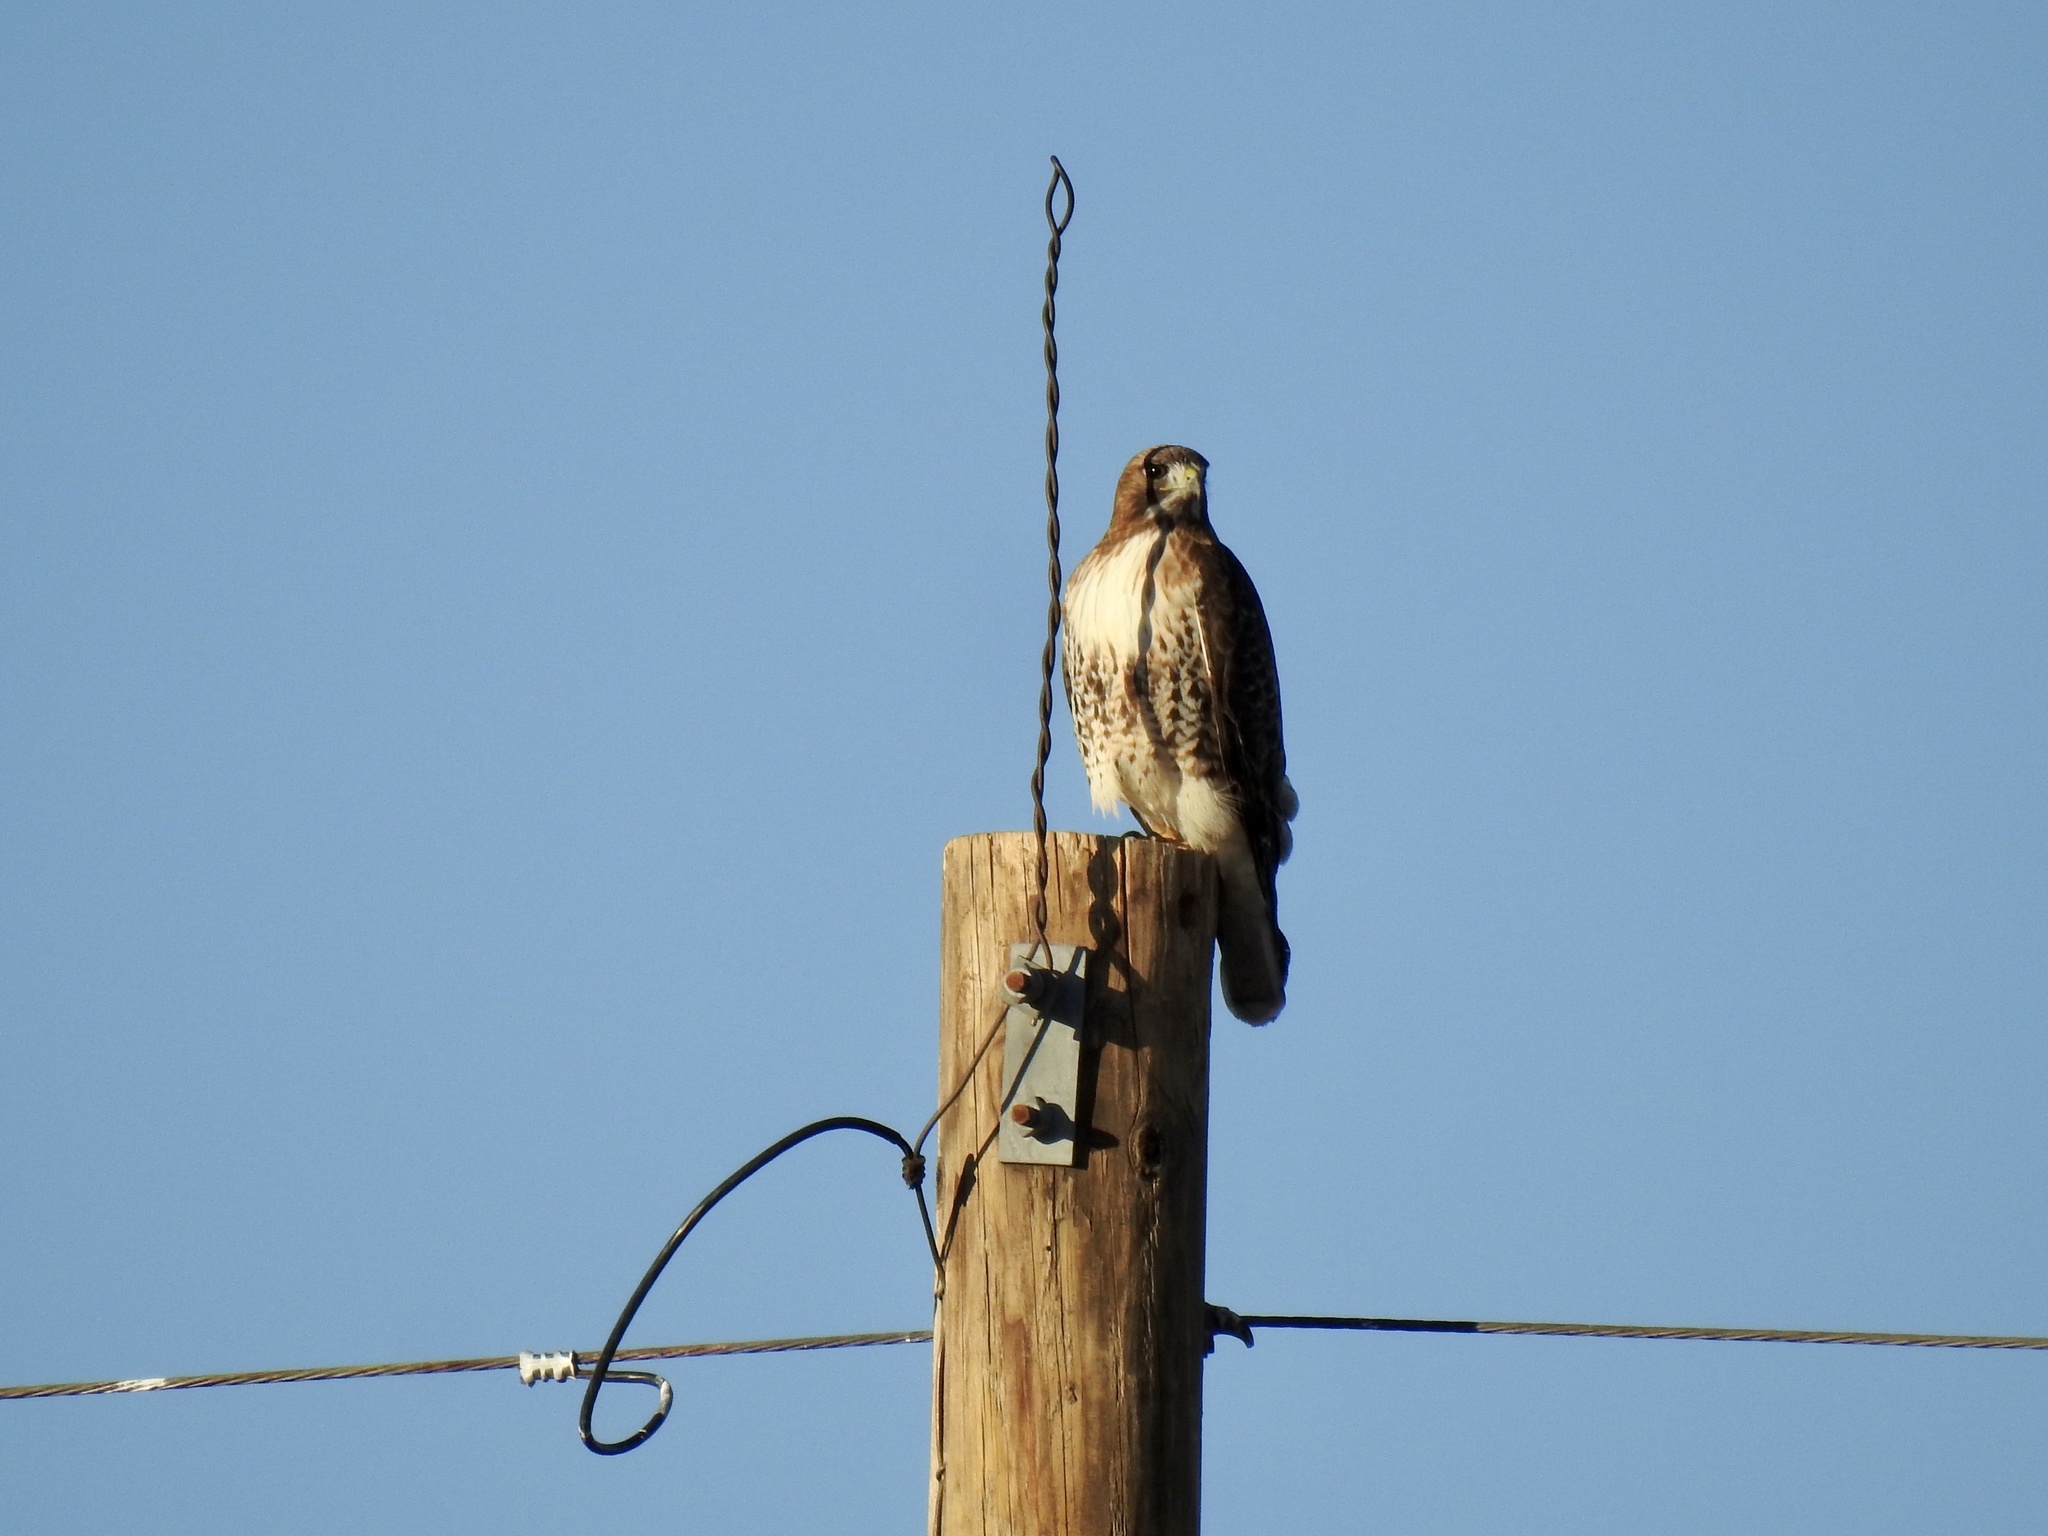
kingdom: Animalia
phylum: Chordata
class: Aves
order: Accipitriformes
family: Accipitridae
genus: Buteo
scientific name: Buteo jamaicensis
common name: Red-tailed hawk
